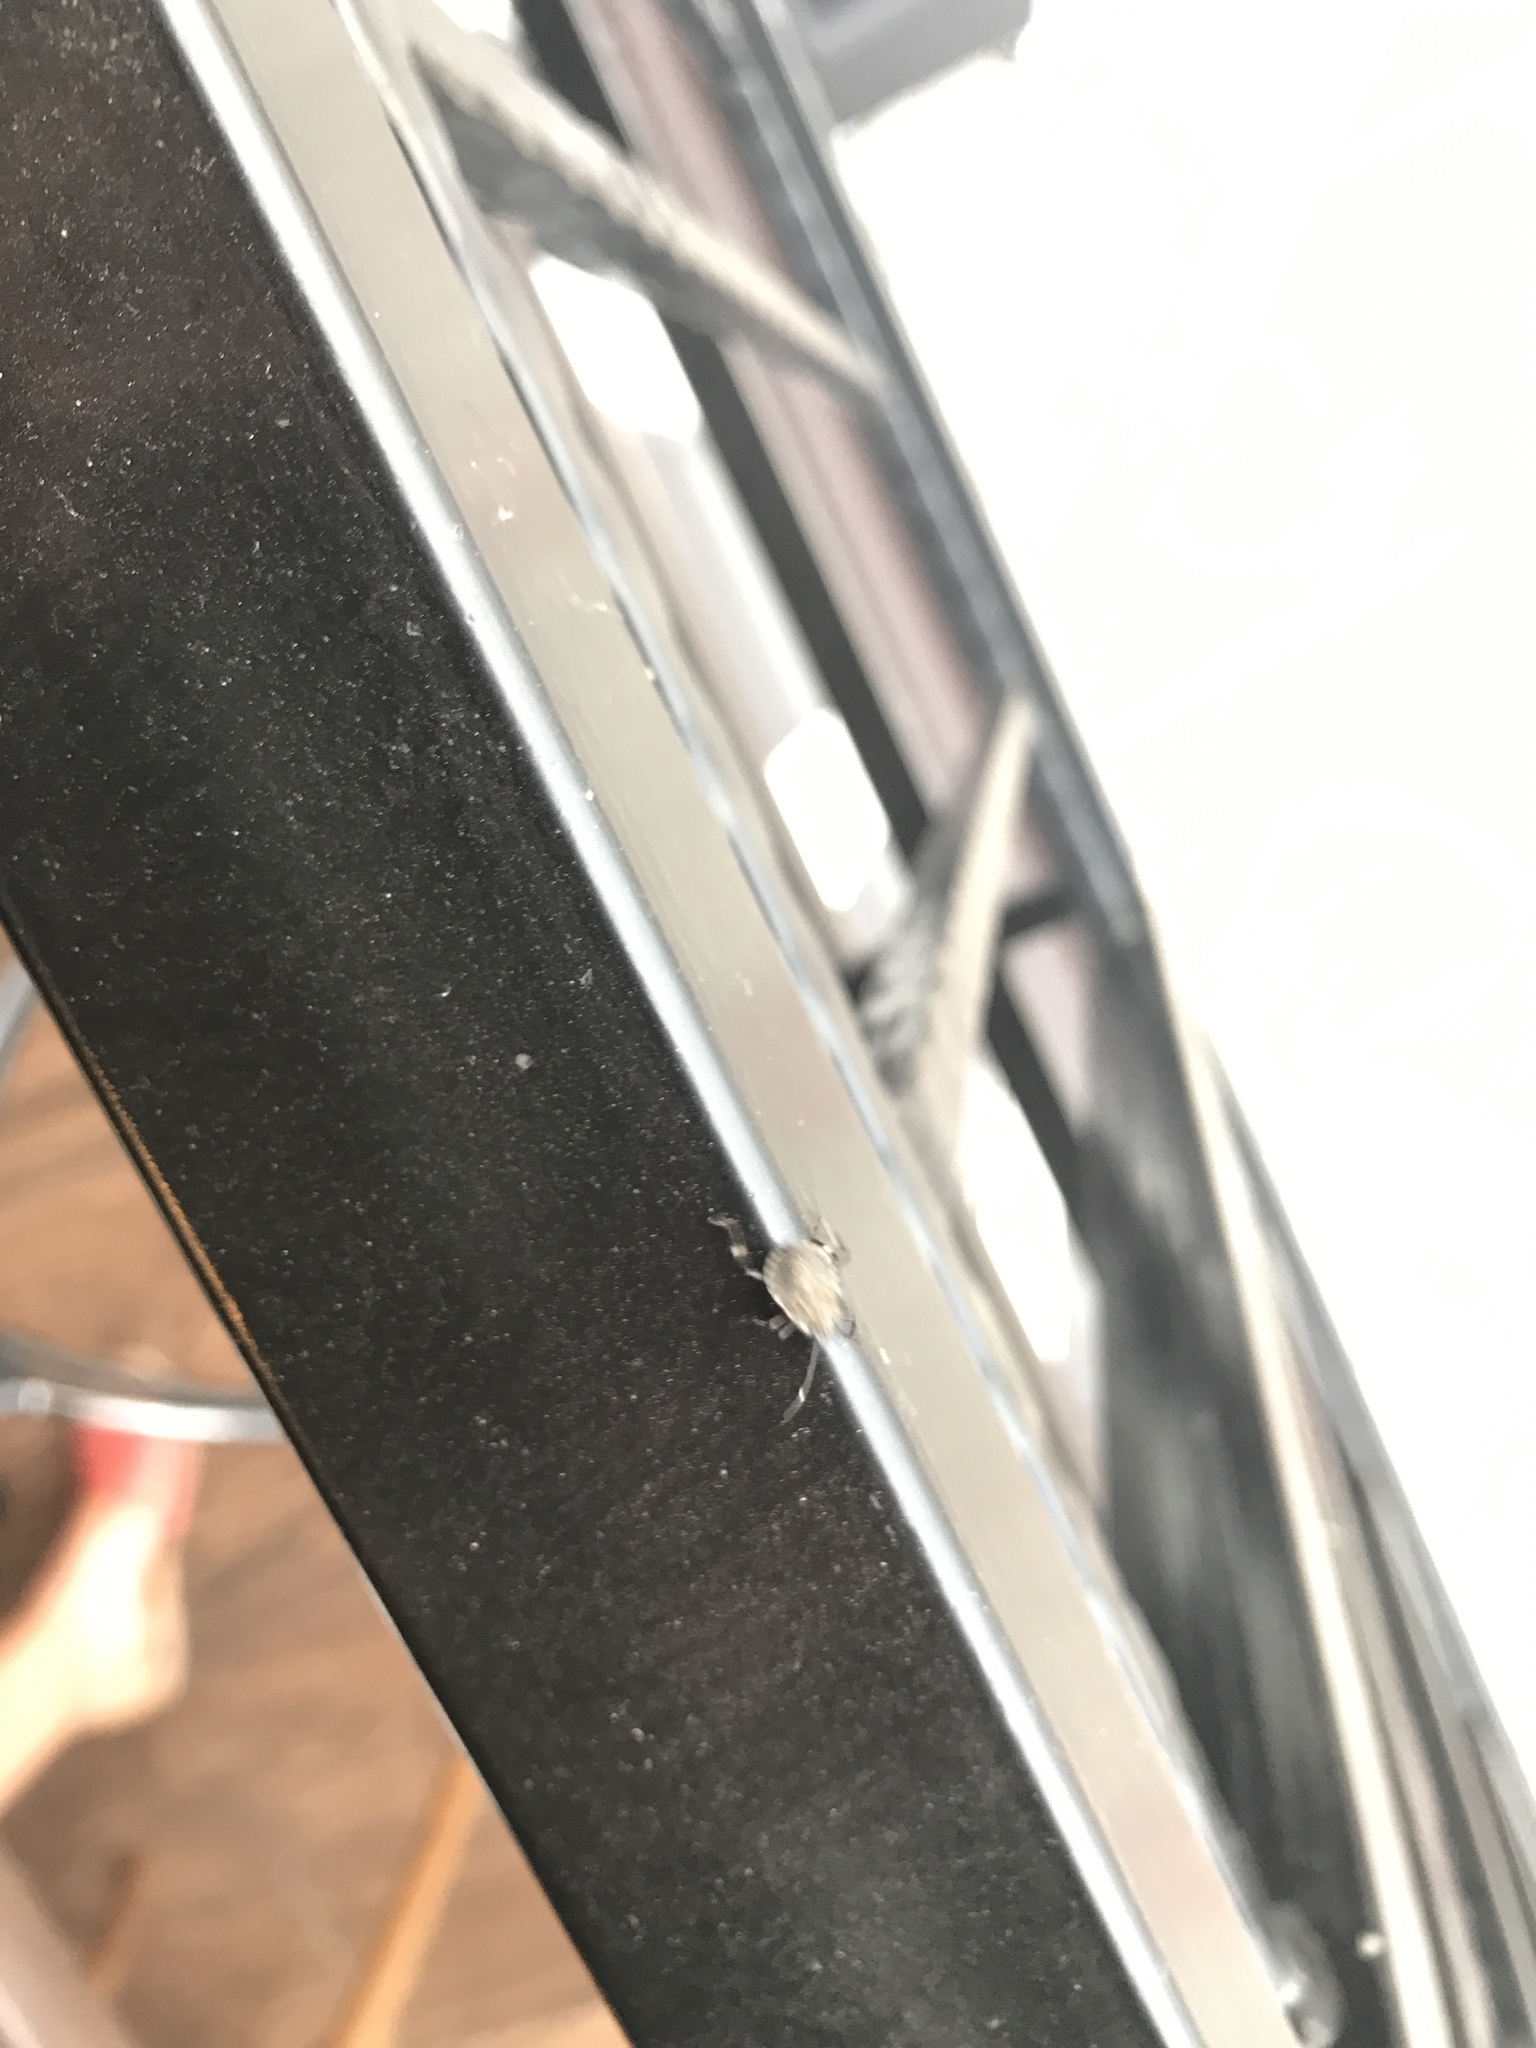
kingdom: Animalia
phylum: Arthropoda
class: Insecta
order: Hemiptera
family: Pentatomidae
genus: Halyomorpha
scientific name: Halyomorpha halys
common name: Brown marmorated stink bug
